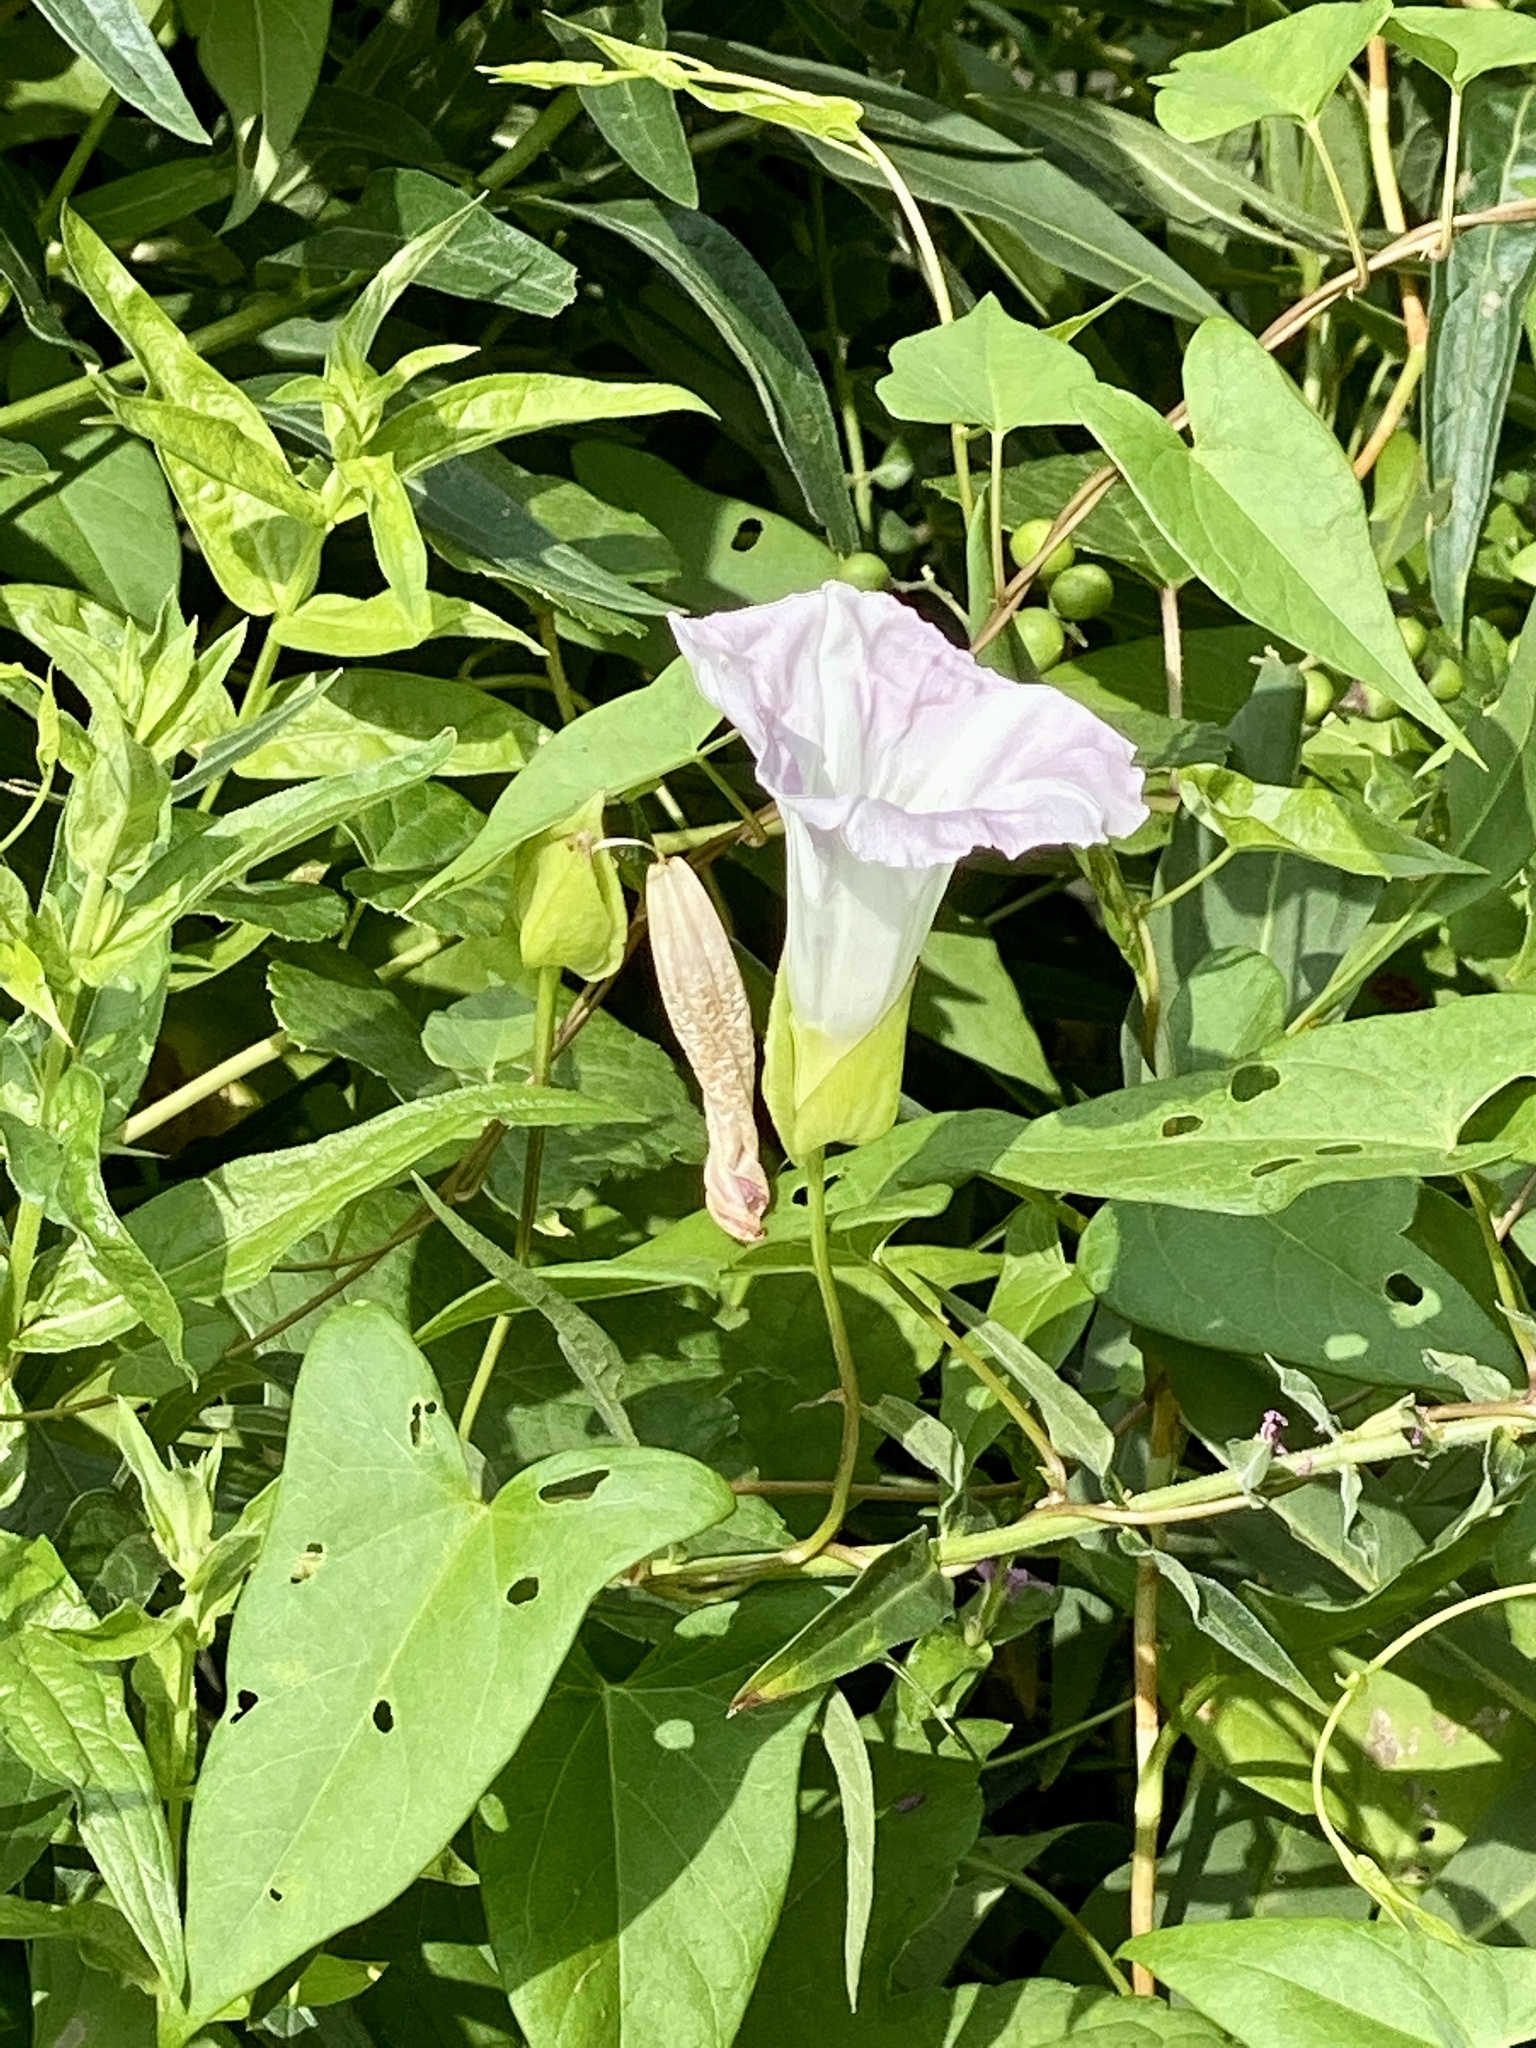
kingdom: Plantae
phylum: Tracheophyta
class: Magnoliopsida
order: Solanales
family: Convolvulaceae
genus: Calystegia
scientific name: Calystegia sepium
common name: Hedge bindweed
